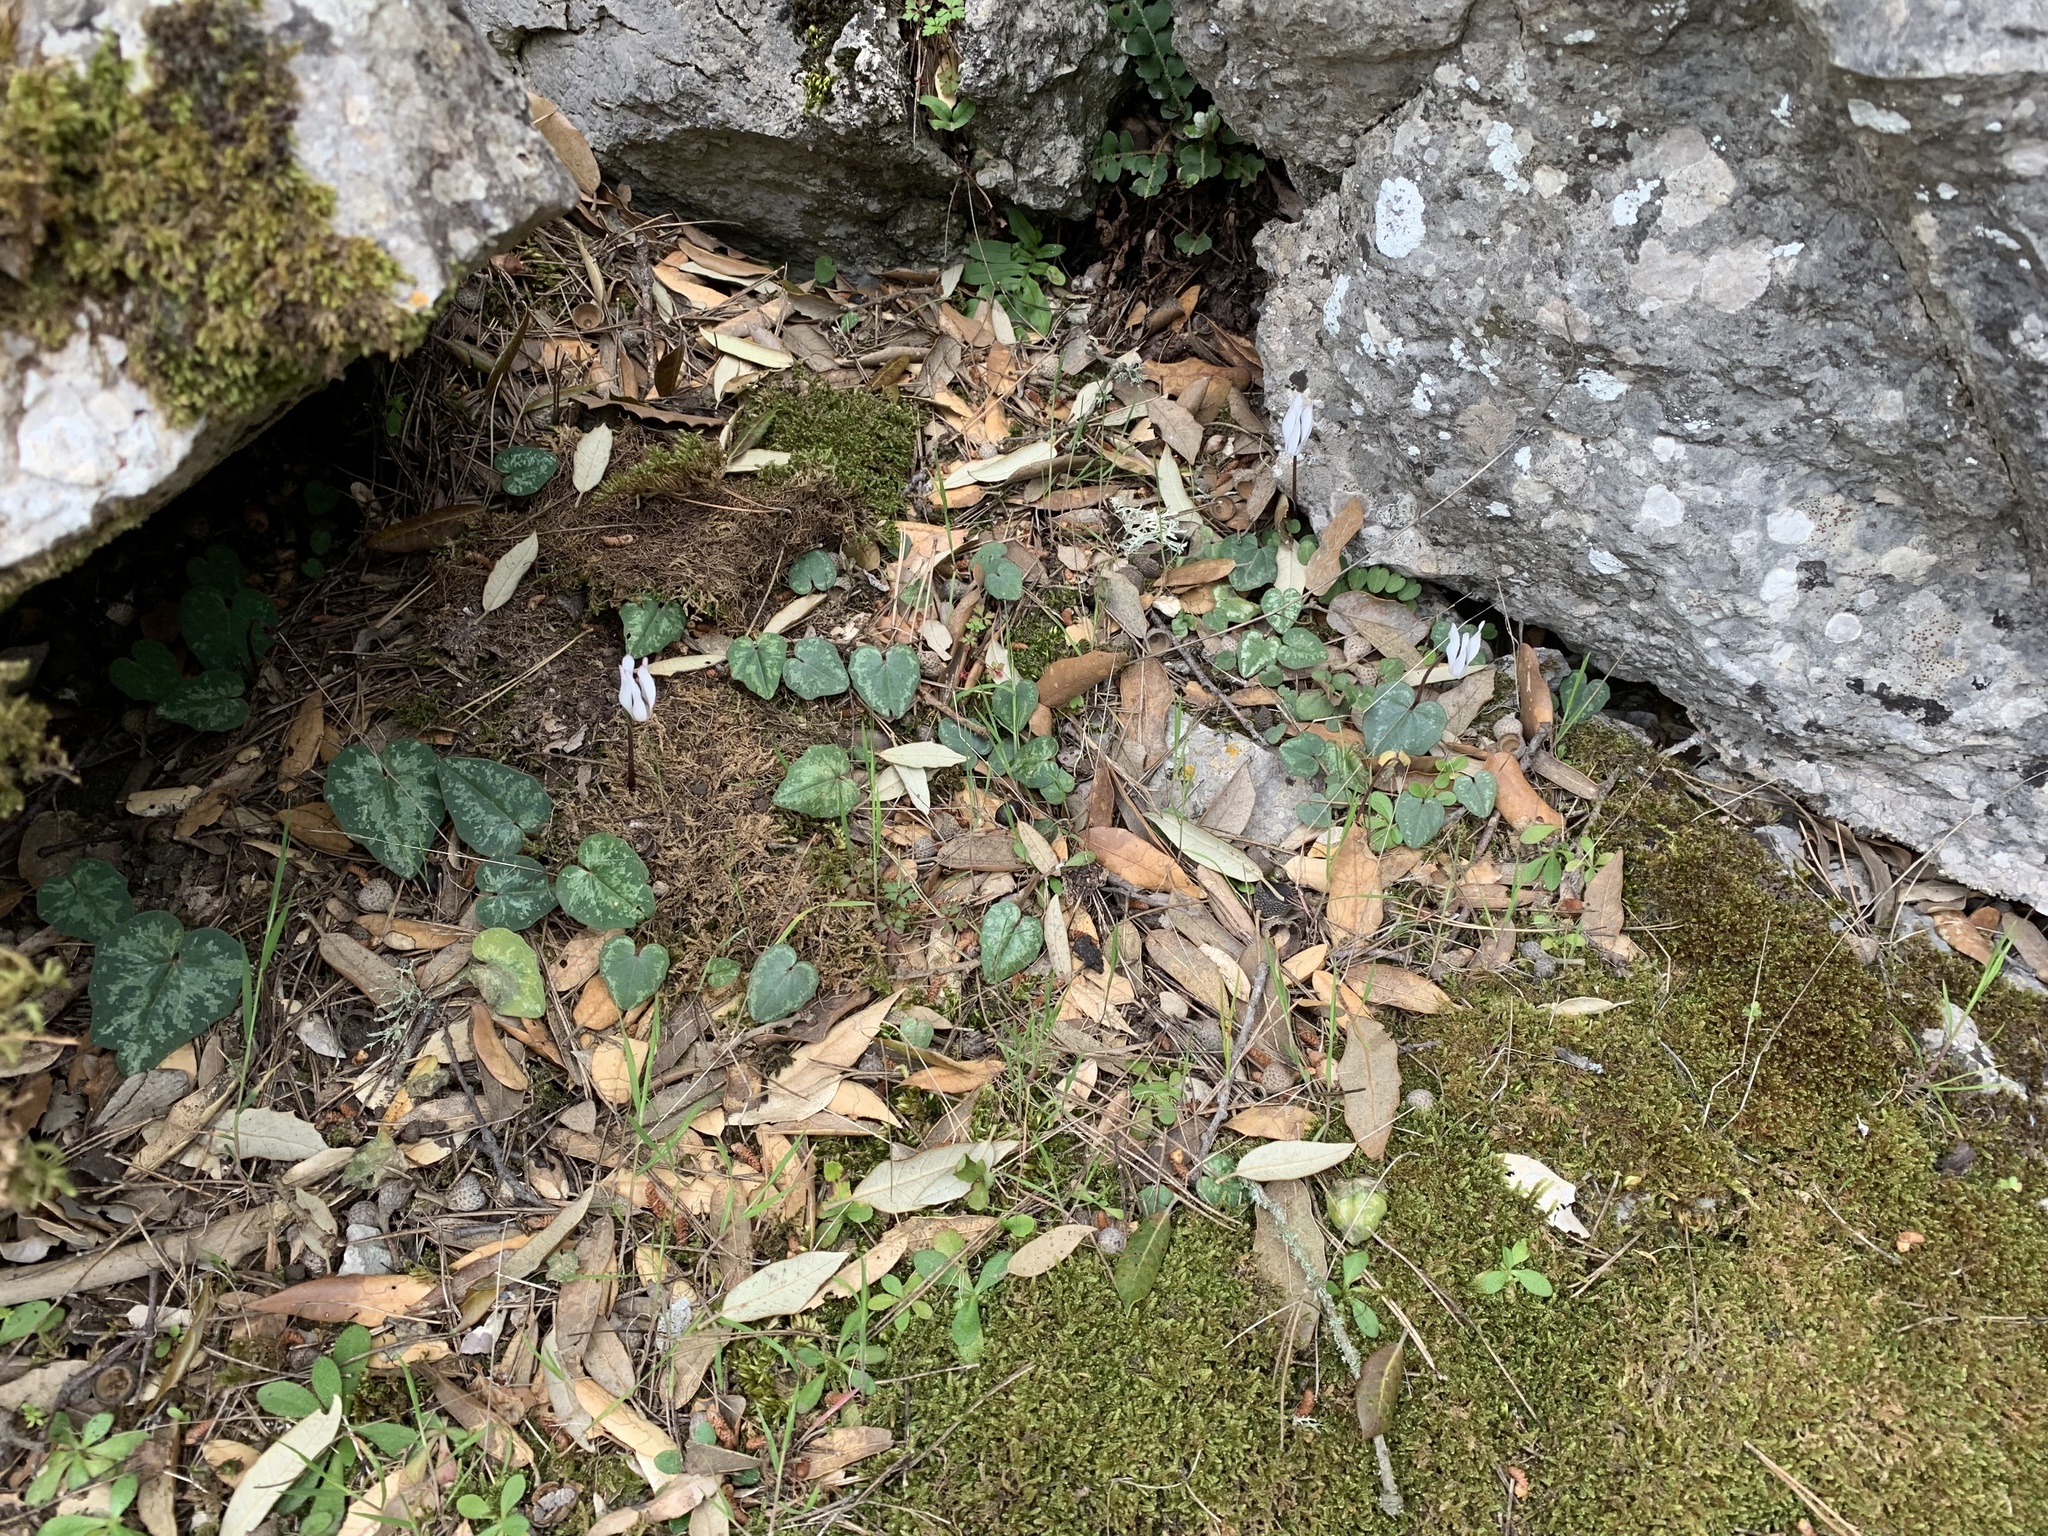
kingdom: Plantae
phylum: Tracheophyta
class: Magnoliopsida
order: Ericales
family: Primulaceae
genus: Cyclamen
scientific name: Cyclamen balearicum
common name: Majorca cyclamen
